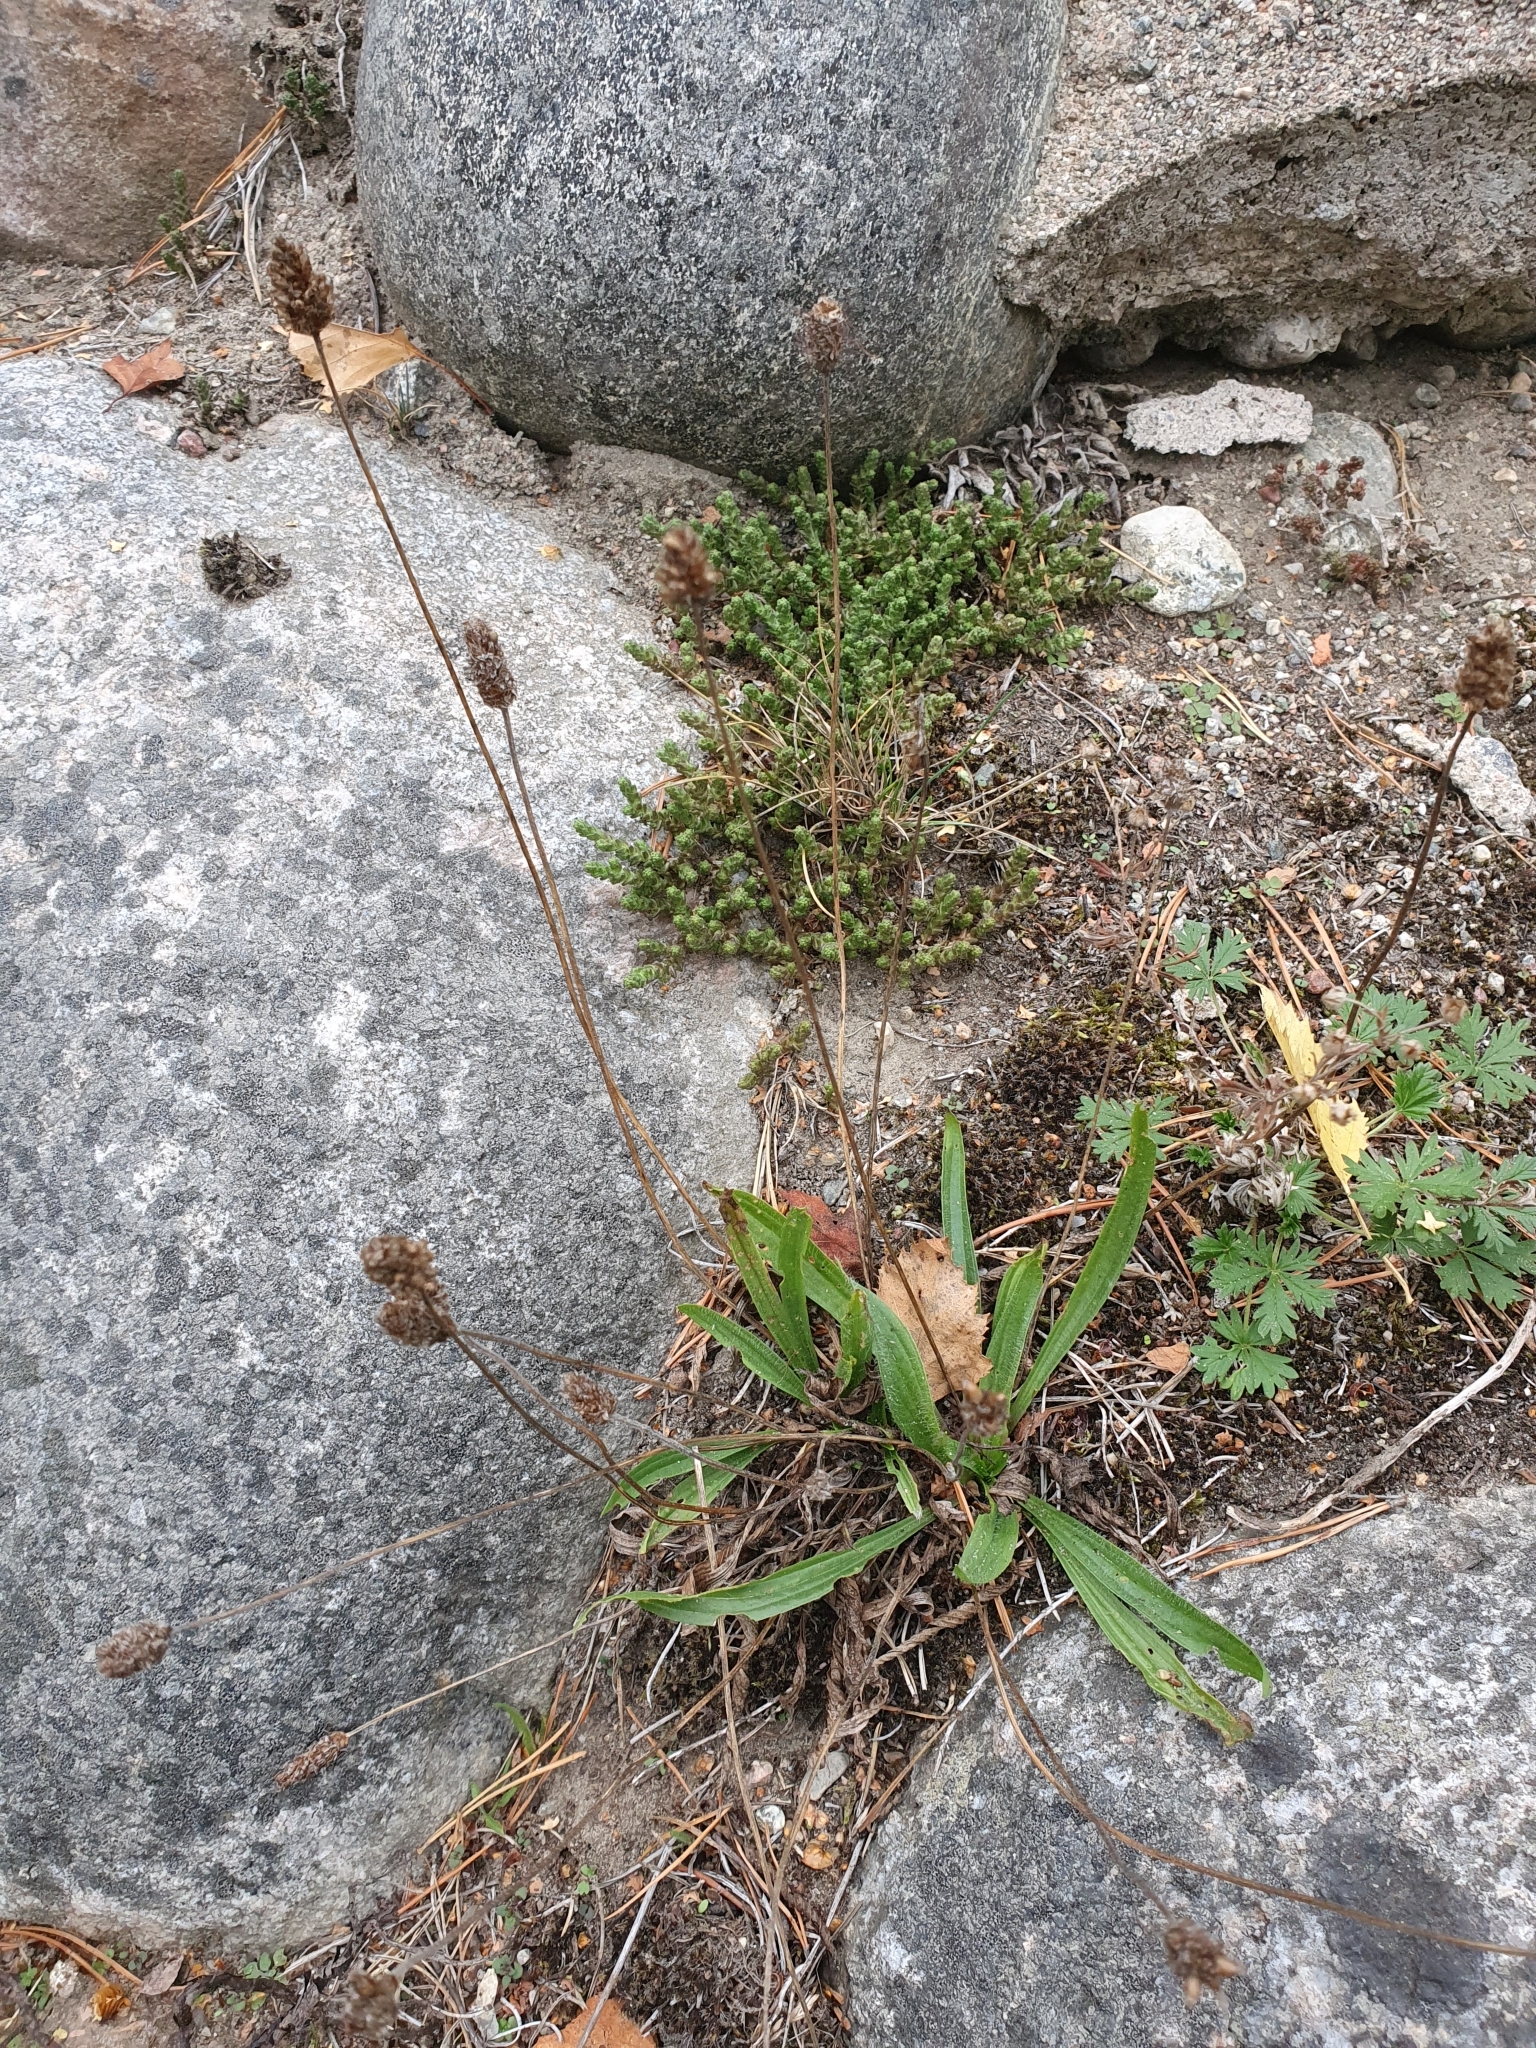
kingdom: Plantae
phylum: Tracheophyta
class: Magnoliopsida
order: Lamiales
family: Plantaginaceae
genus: Plantago
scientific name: Plantago lanceolata
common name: Ribwort plantain
